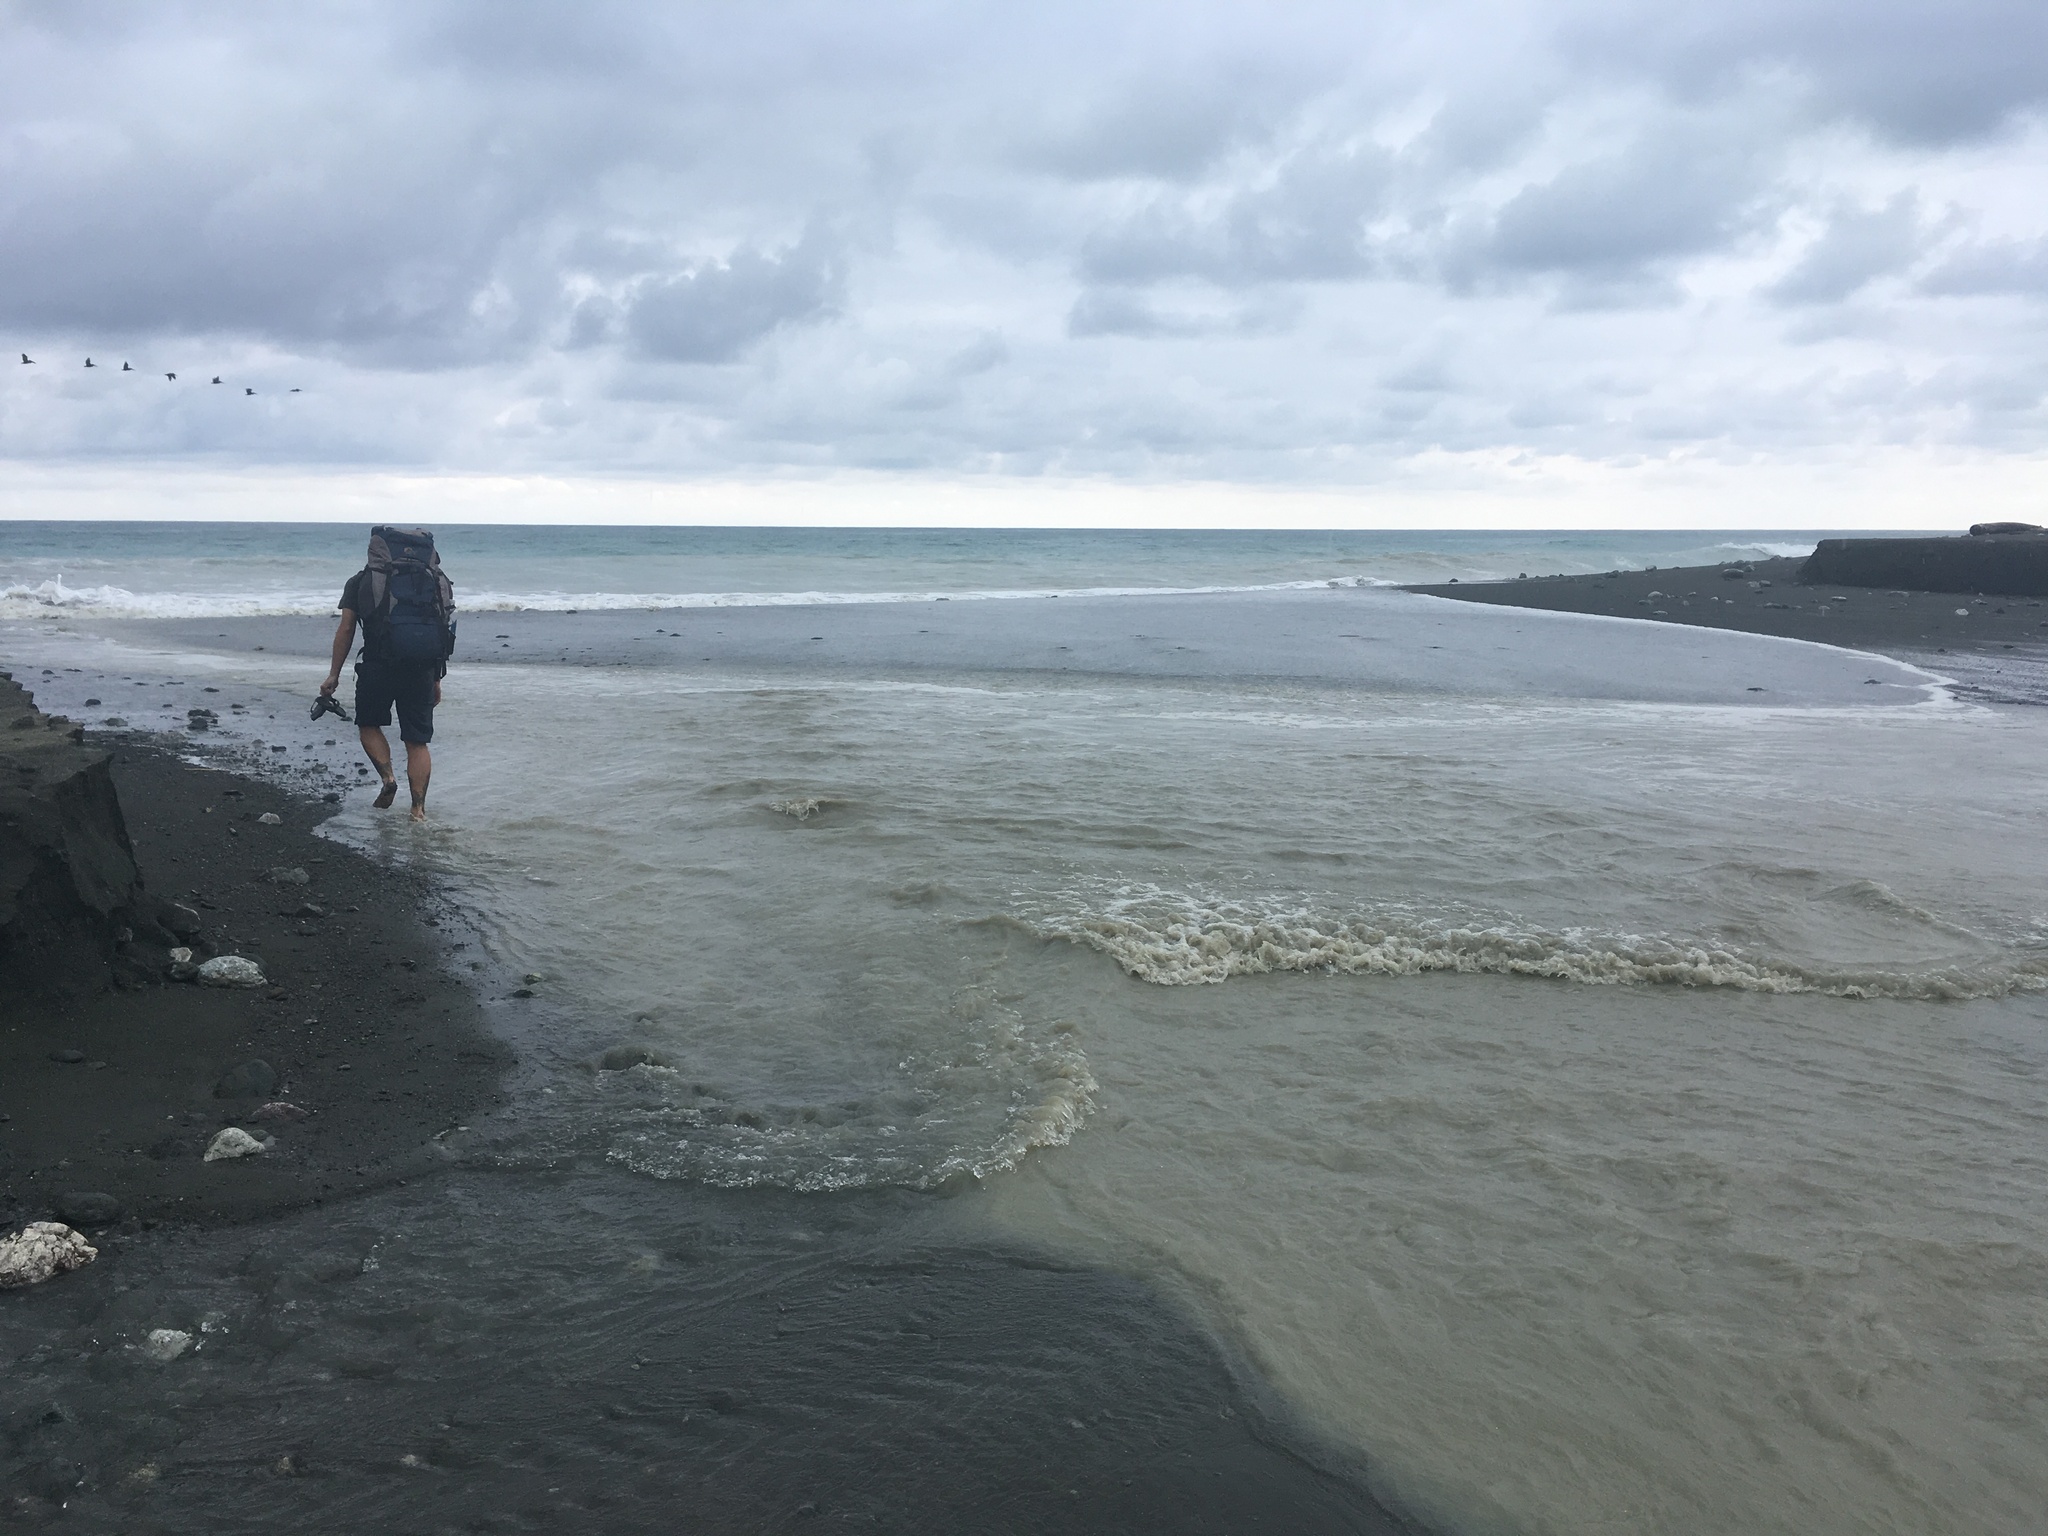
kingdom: Animalia
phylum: Chordata
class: Aves
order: Pelecaniformes
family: Pelecanidae
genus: Pelecanus
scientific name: Pelecanus occidentalis
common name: Brown pelican
